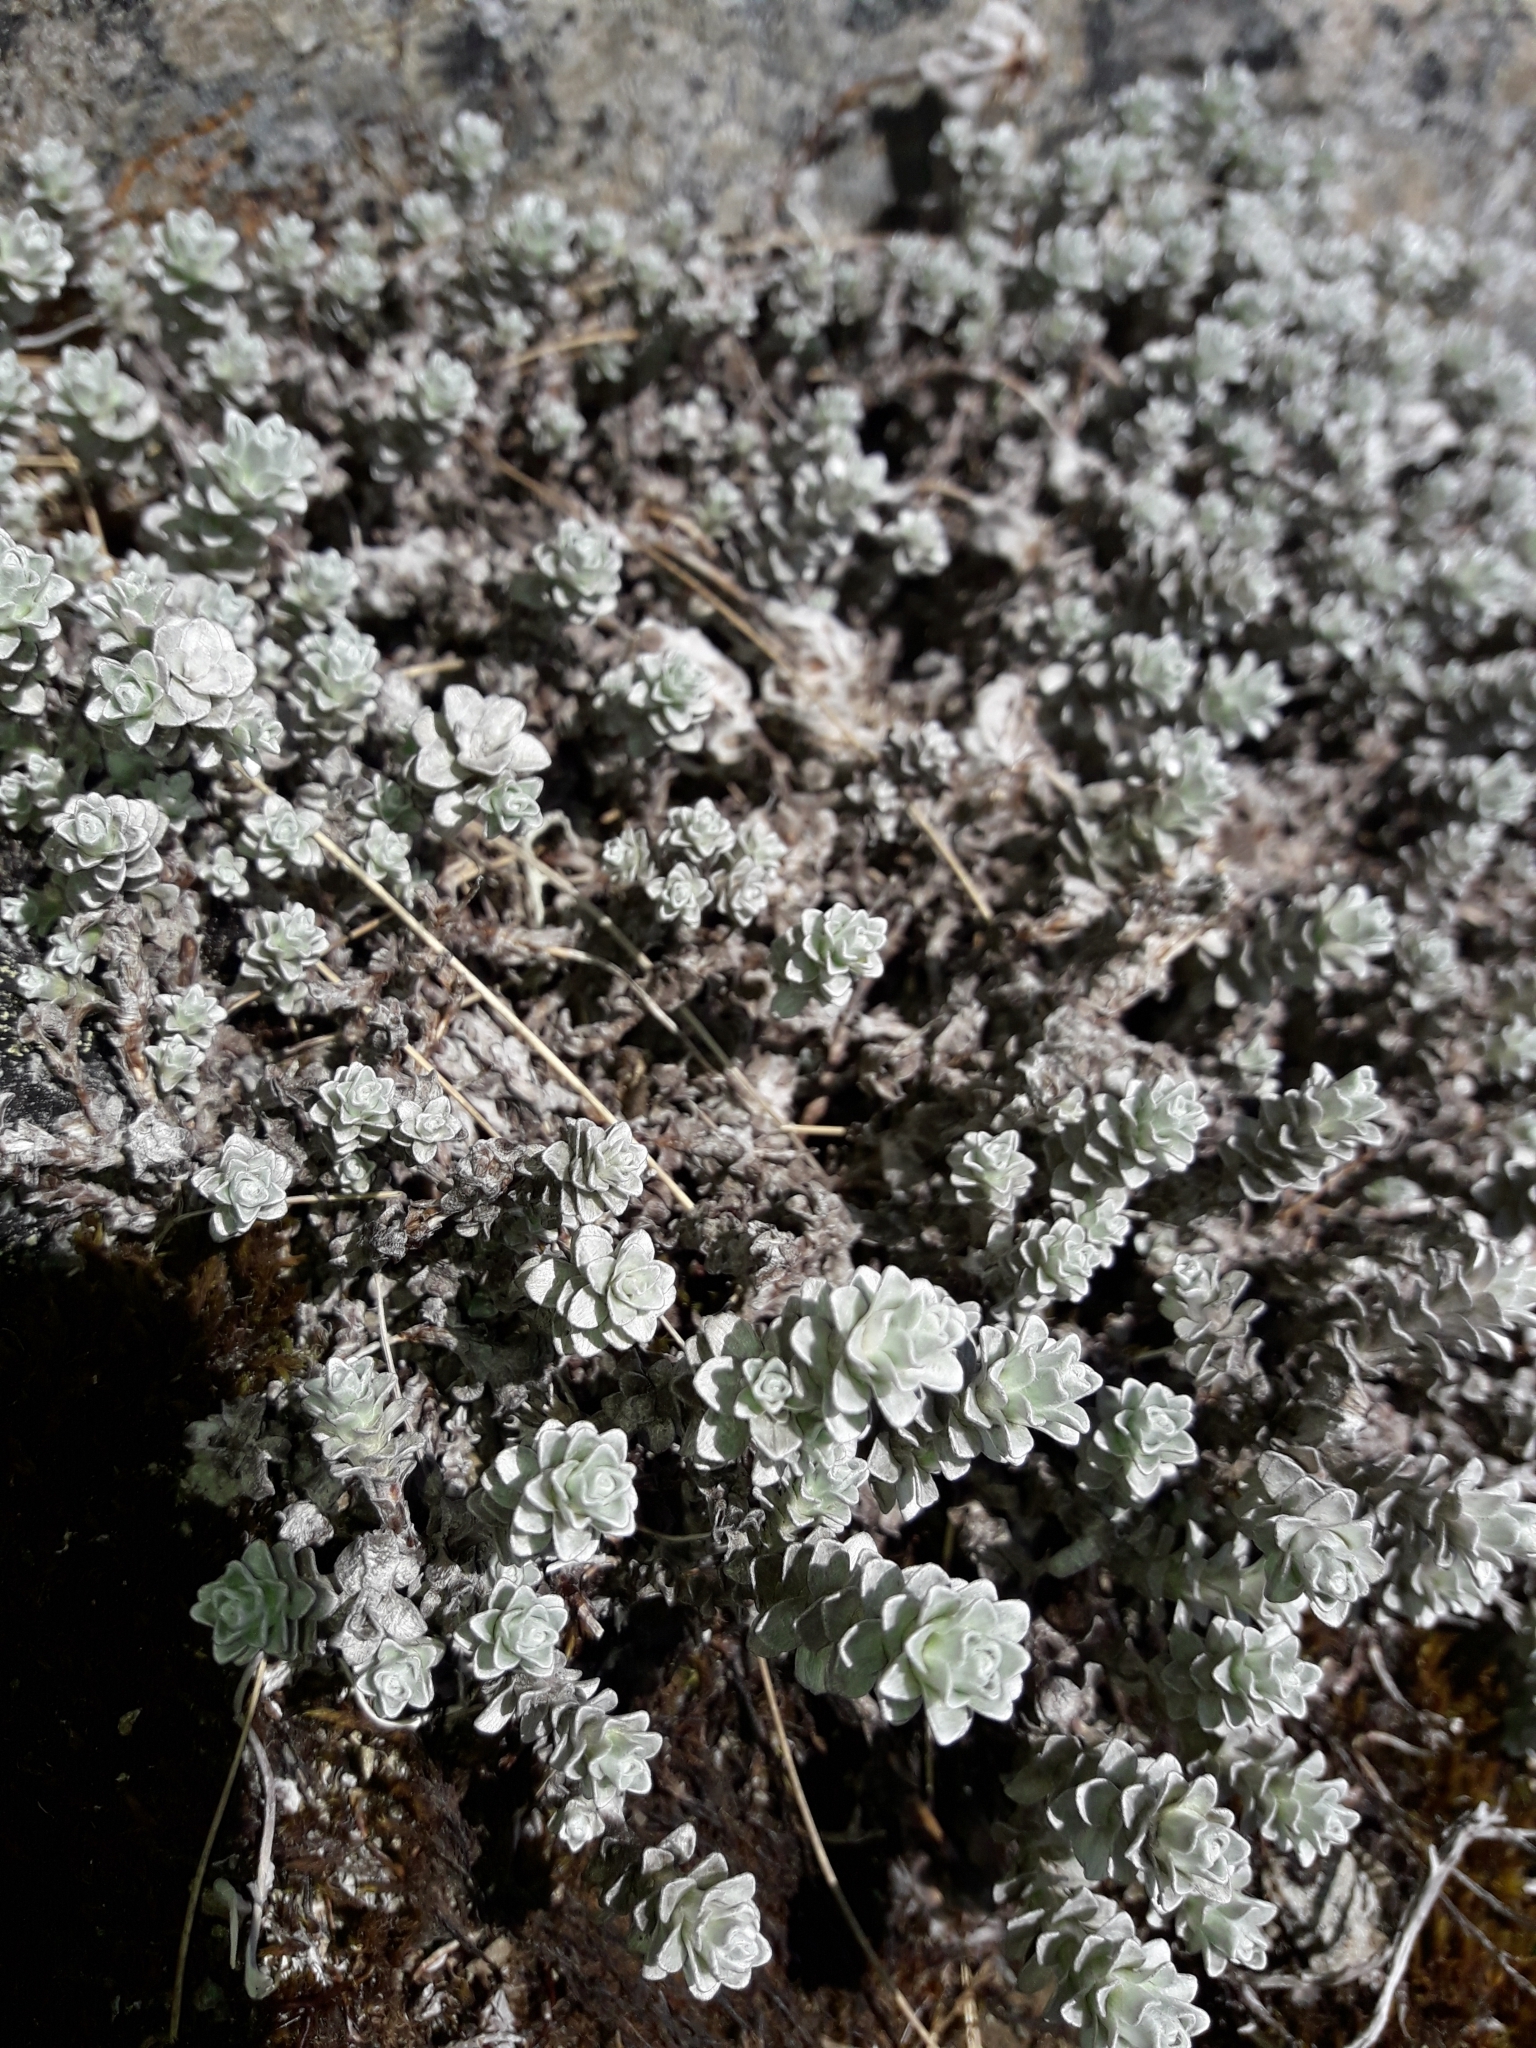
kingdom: Plantae
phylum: Tracheophyta
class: Magnoliopsida
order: Asterales
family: Asteraceae
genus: Leucogenes
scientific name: Leucogenes grandiceps
